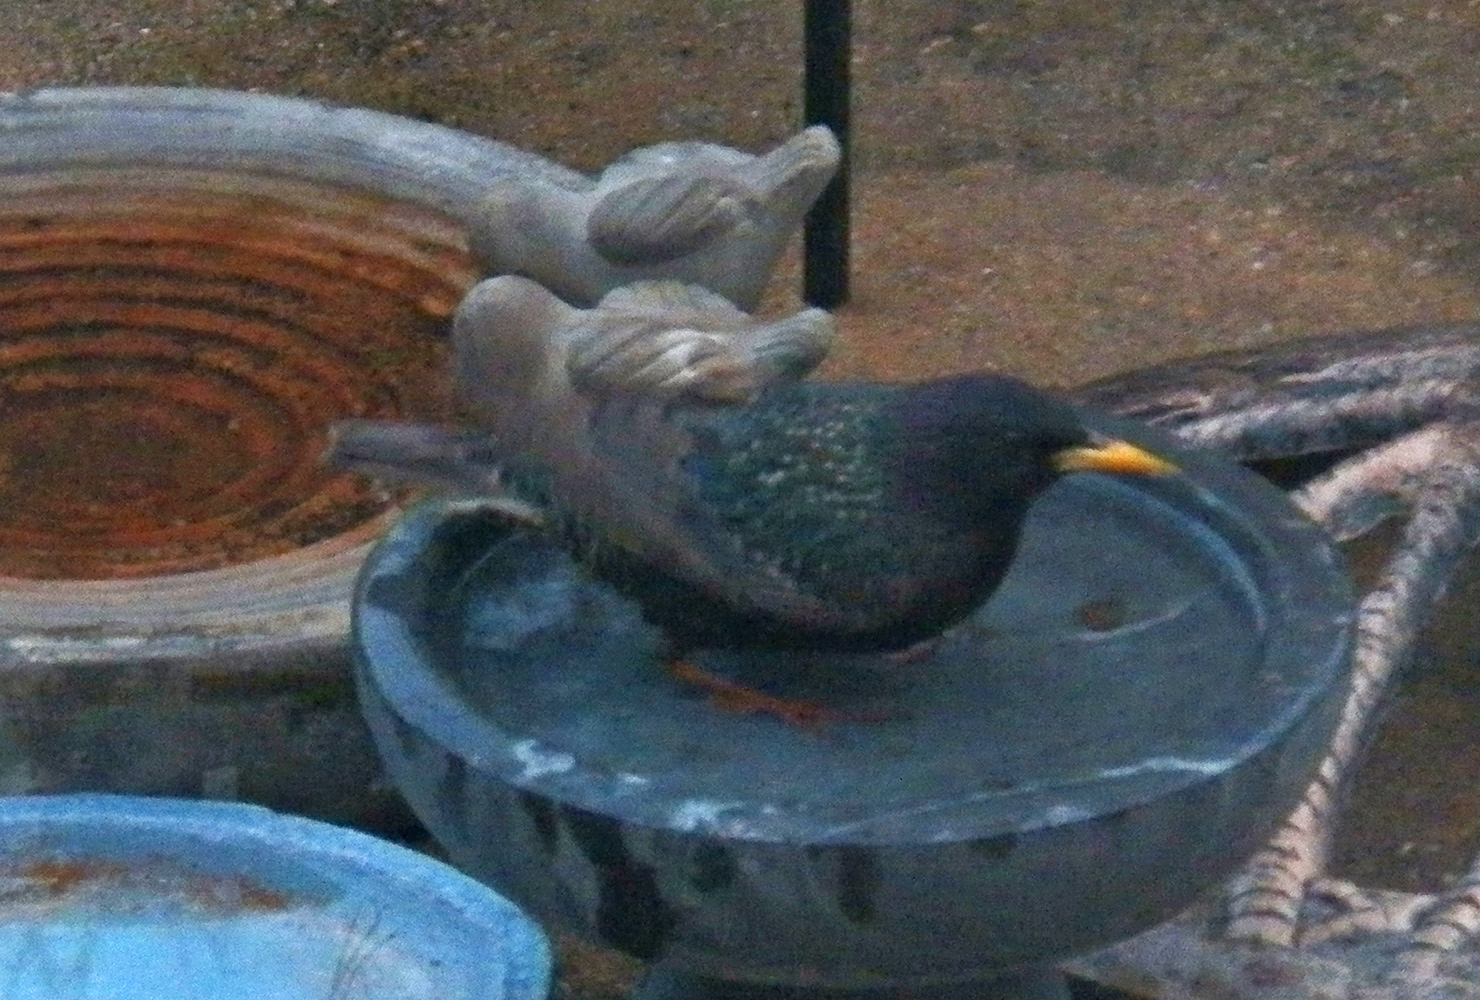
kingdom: Animalia
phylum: Chordata
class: Aves
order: Passeriformes
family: Sturnidae
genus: Sturnus
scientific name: Sturnus vulgaris
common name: Common starling
